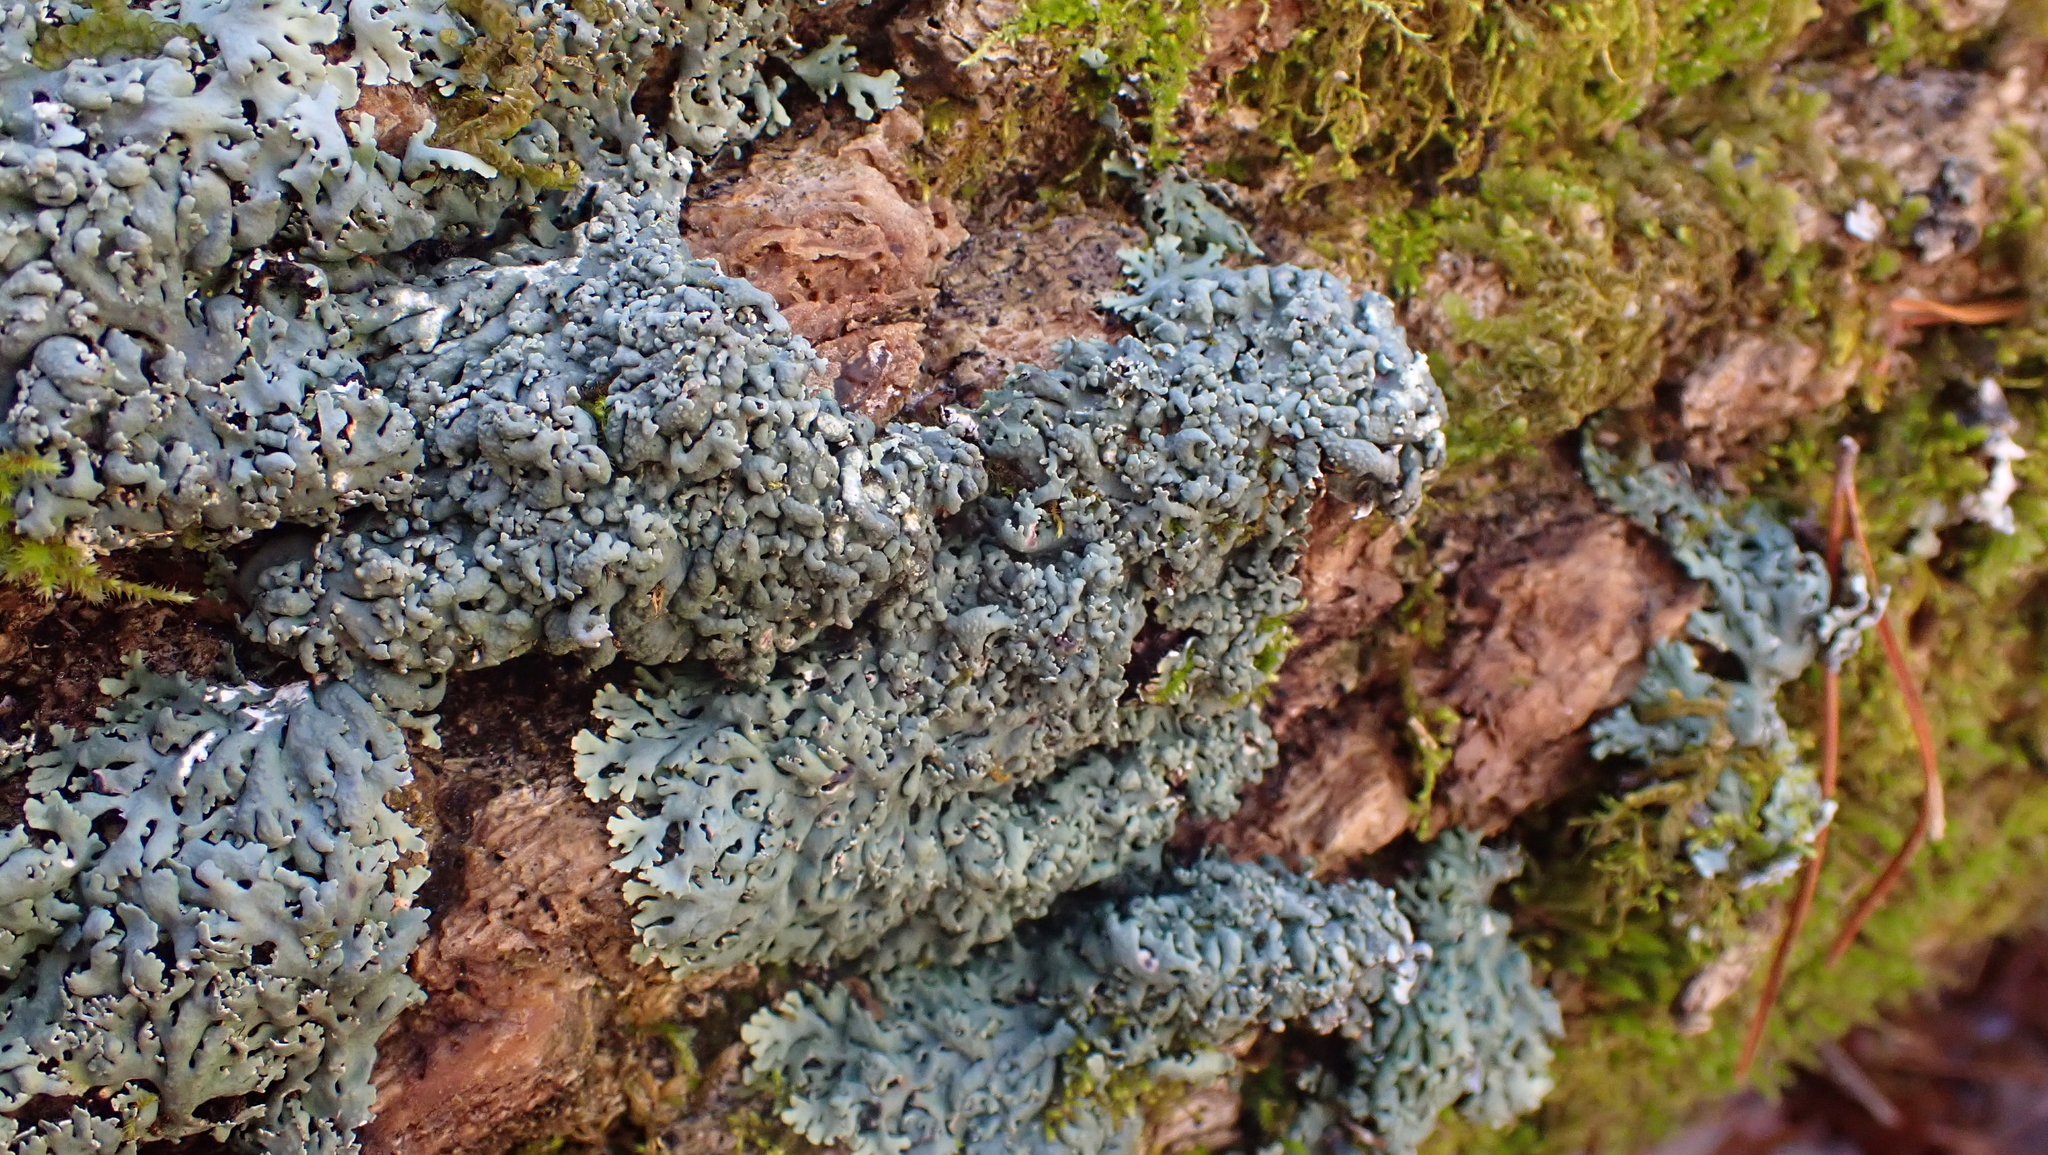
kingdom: Fungi
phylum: Ascomycota
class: Lecanoromycetes
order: Caliciales
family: Physciaceae
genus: Physcia
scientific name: Physcia americana
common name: American rosette lichen
